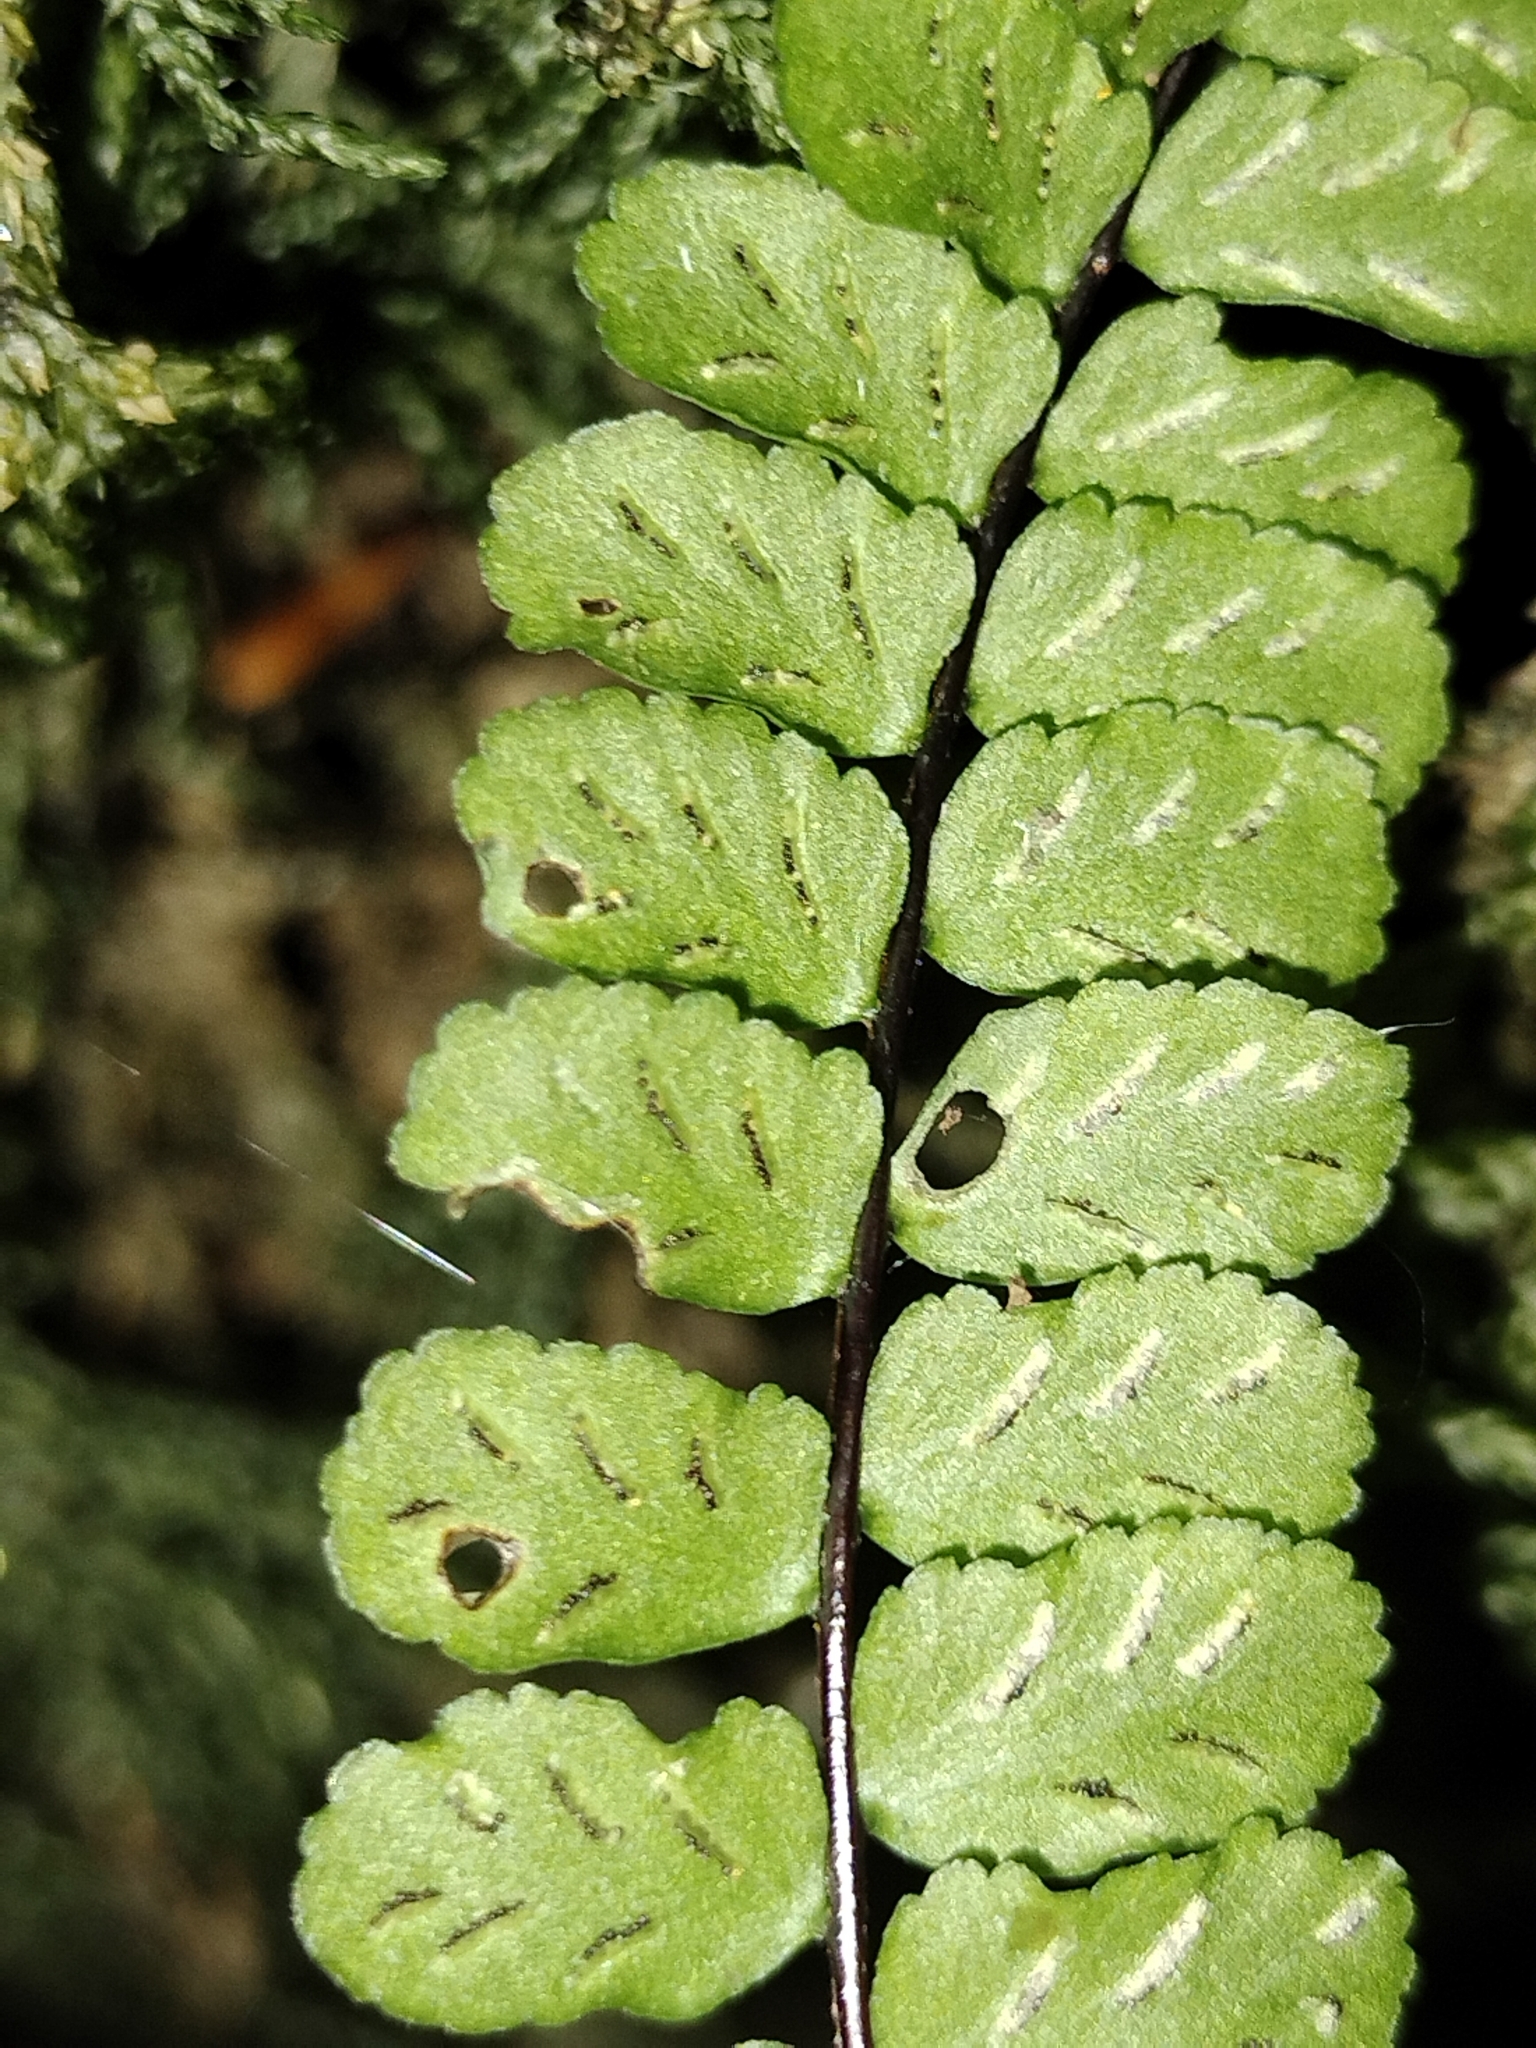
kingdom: Plantae
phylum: Tracheophyta
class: Polypodiopsida
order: Polypodiales
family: Aspleniaceae
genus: Asplenium
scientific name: Asplenium trichomanes
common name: Maidenhair spleenwort
